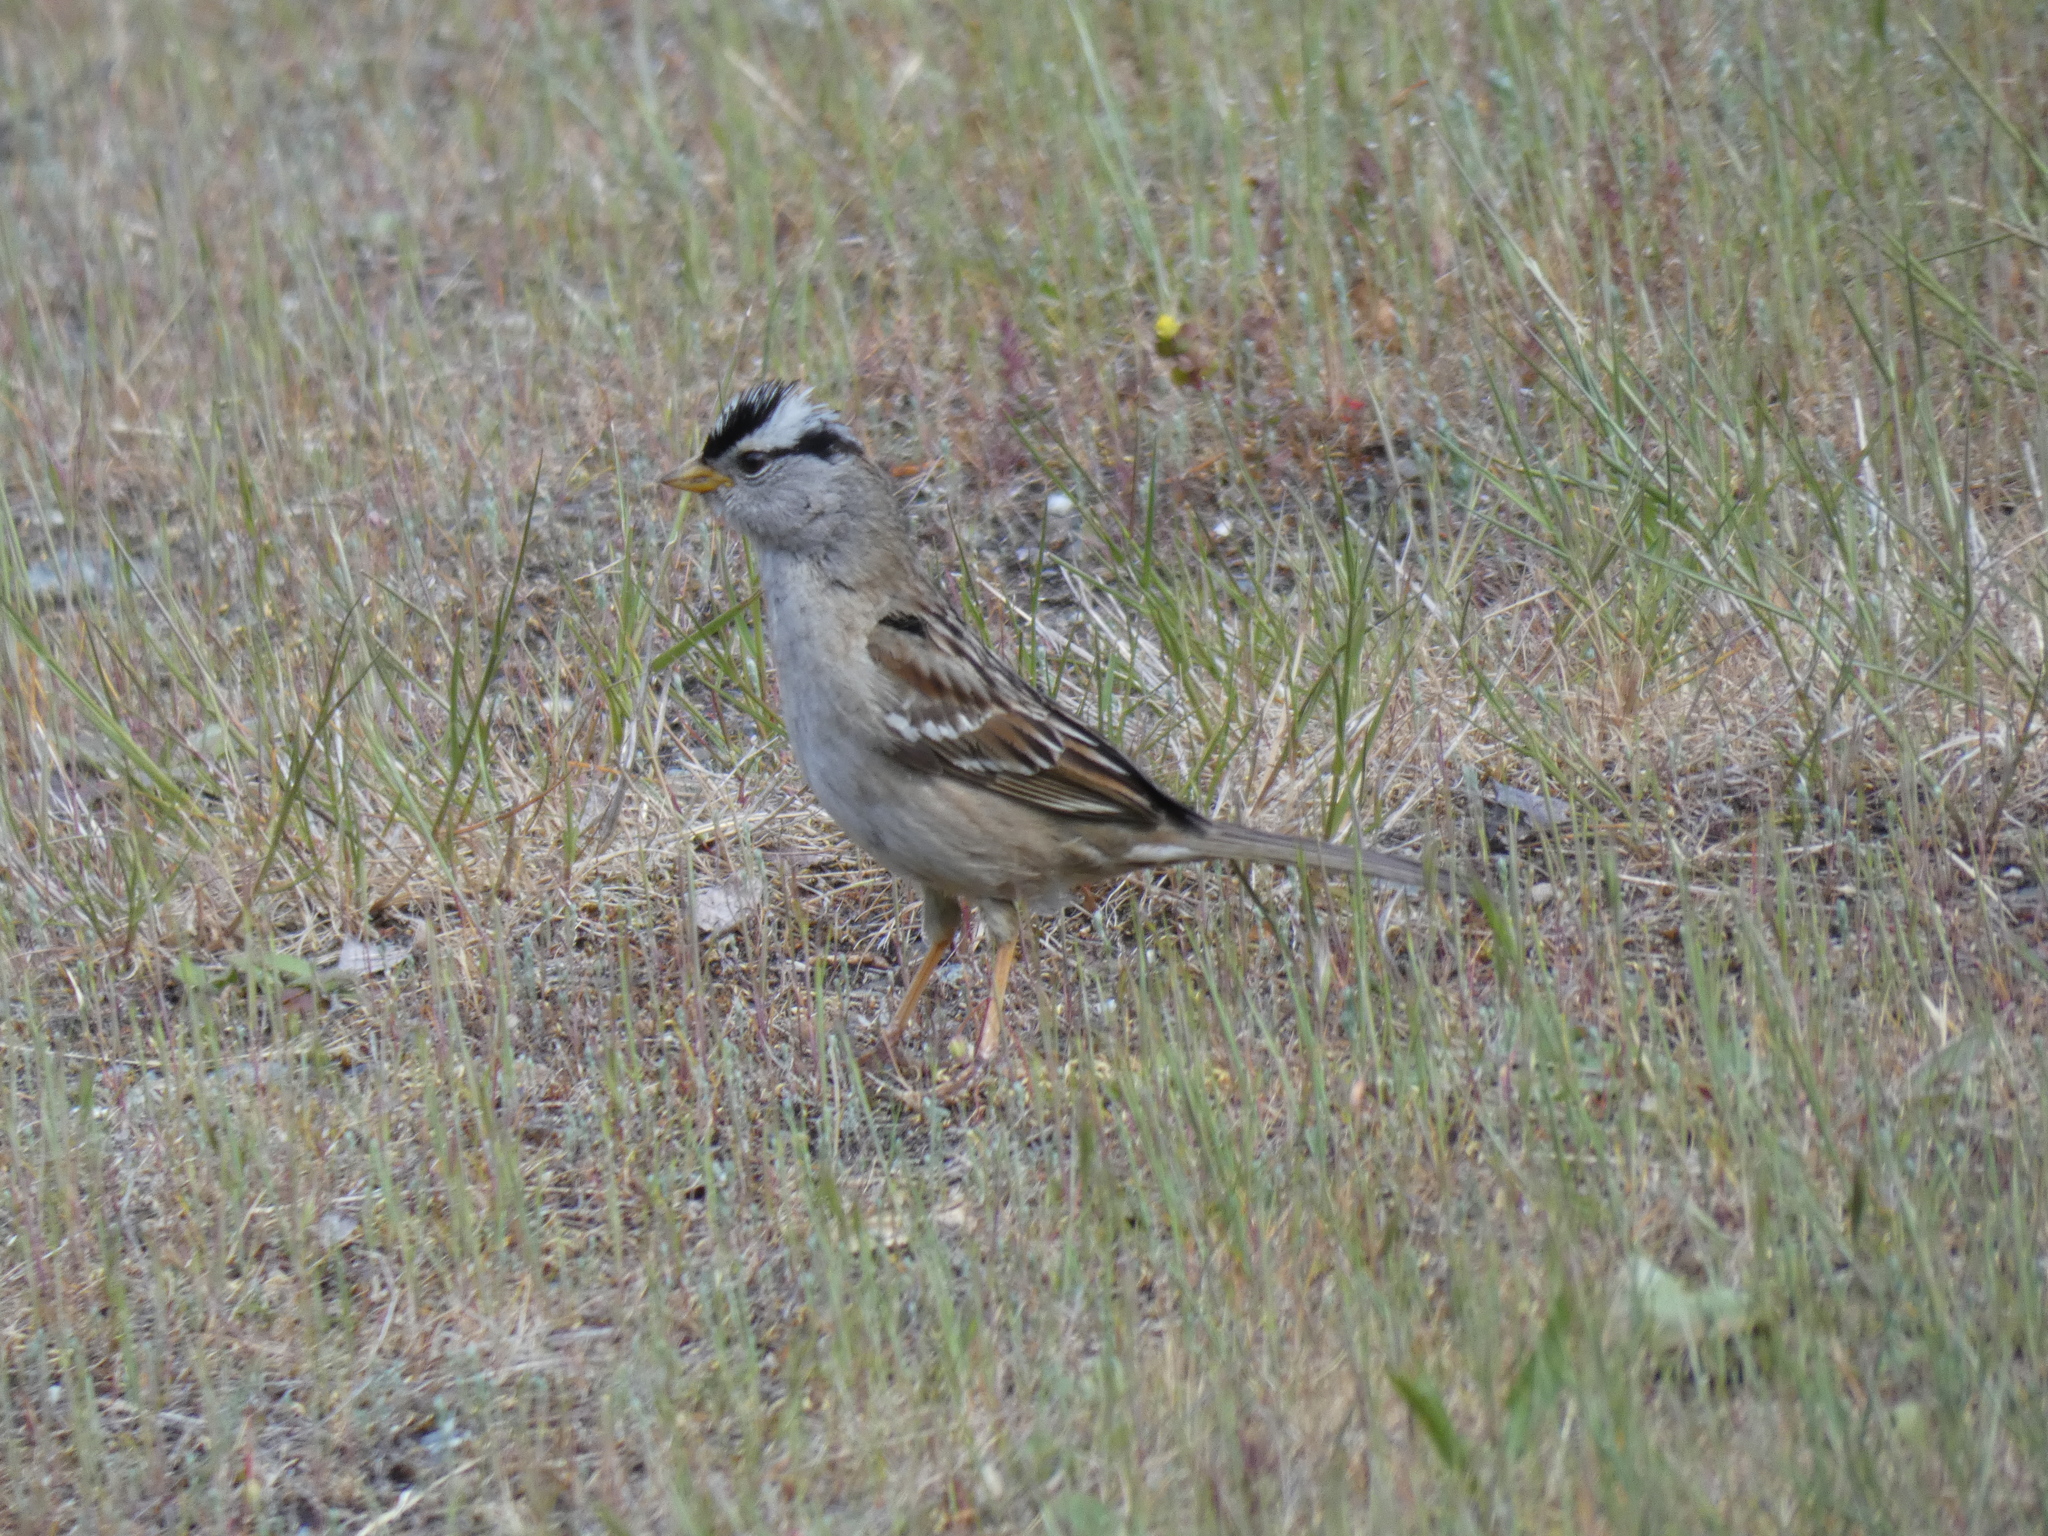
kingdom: Animalia
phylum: Chordata
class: Aves
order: Passeriformes
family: Passerellidae
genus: Zonotrichia
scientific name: Zonotrichia leucophrys
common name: White-crowned sparrow
